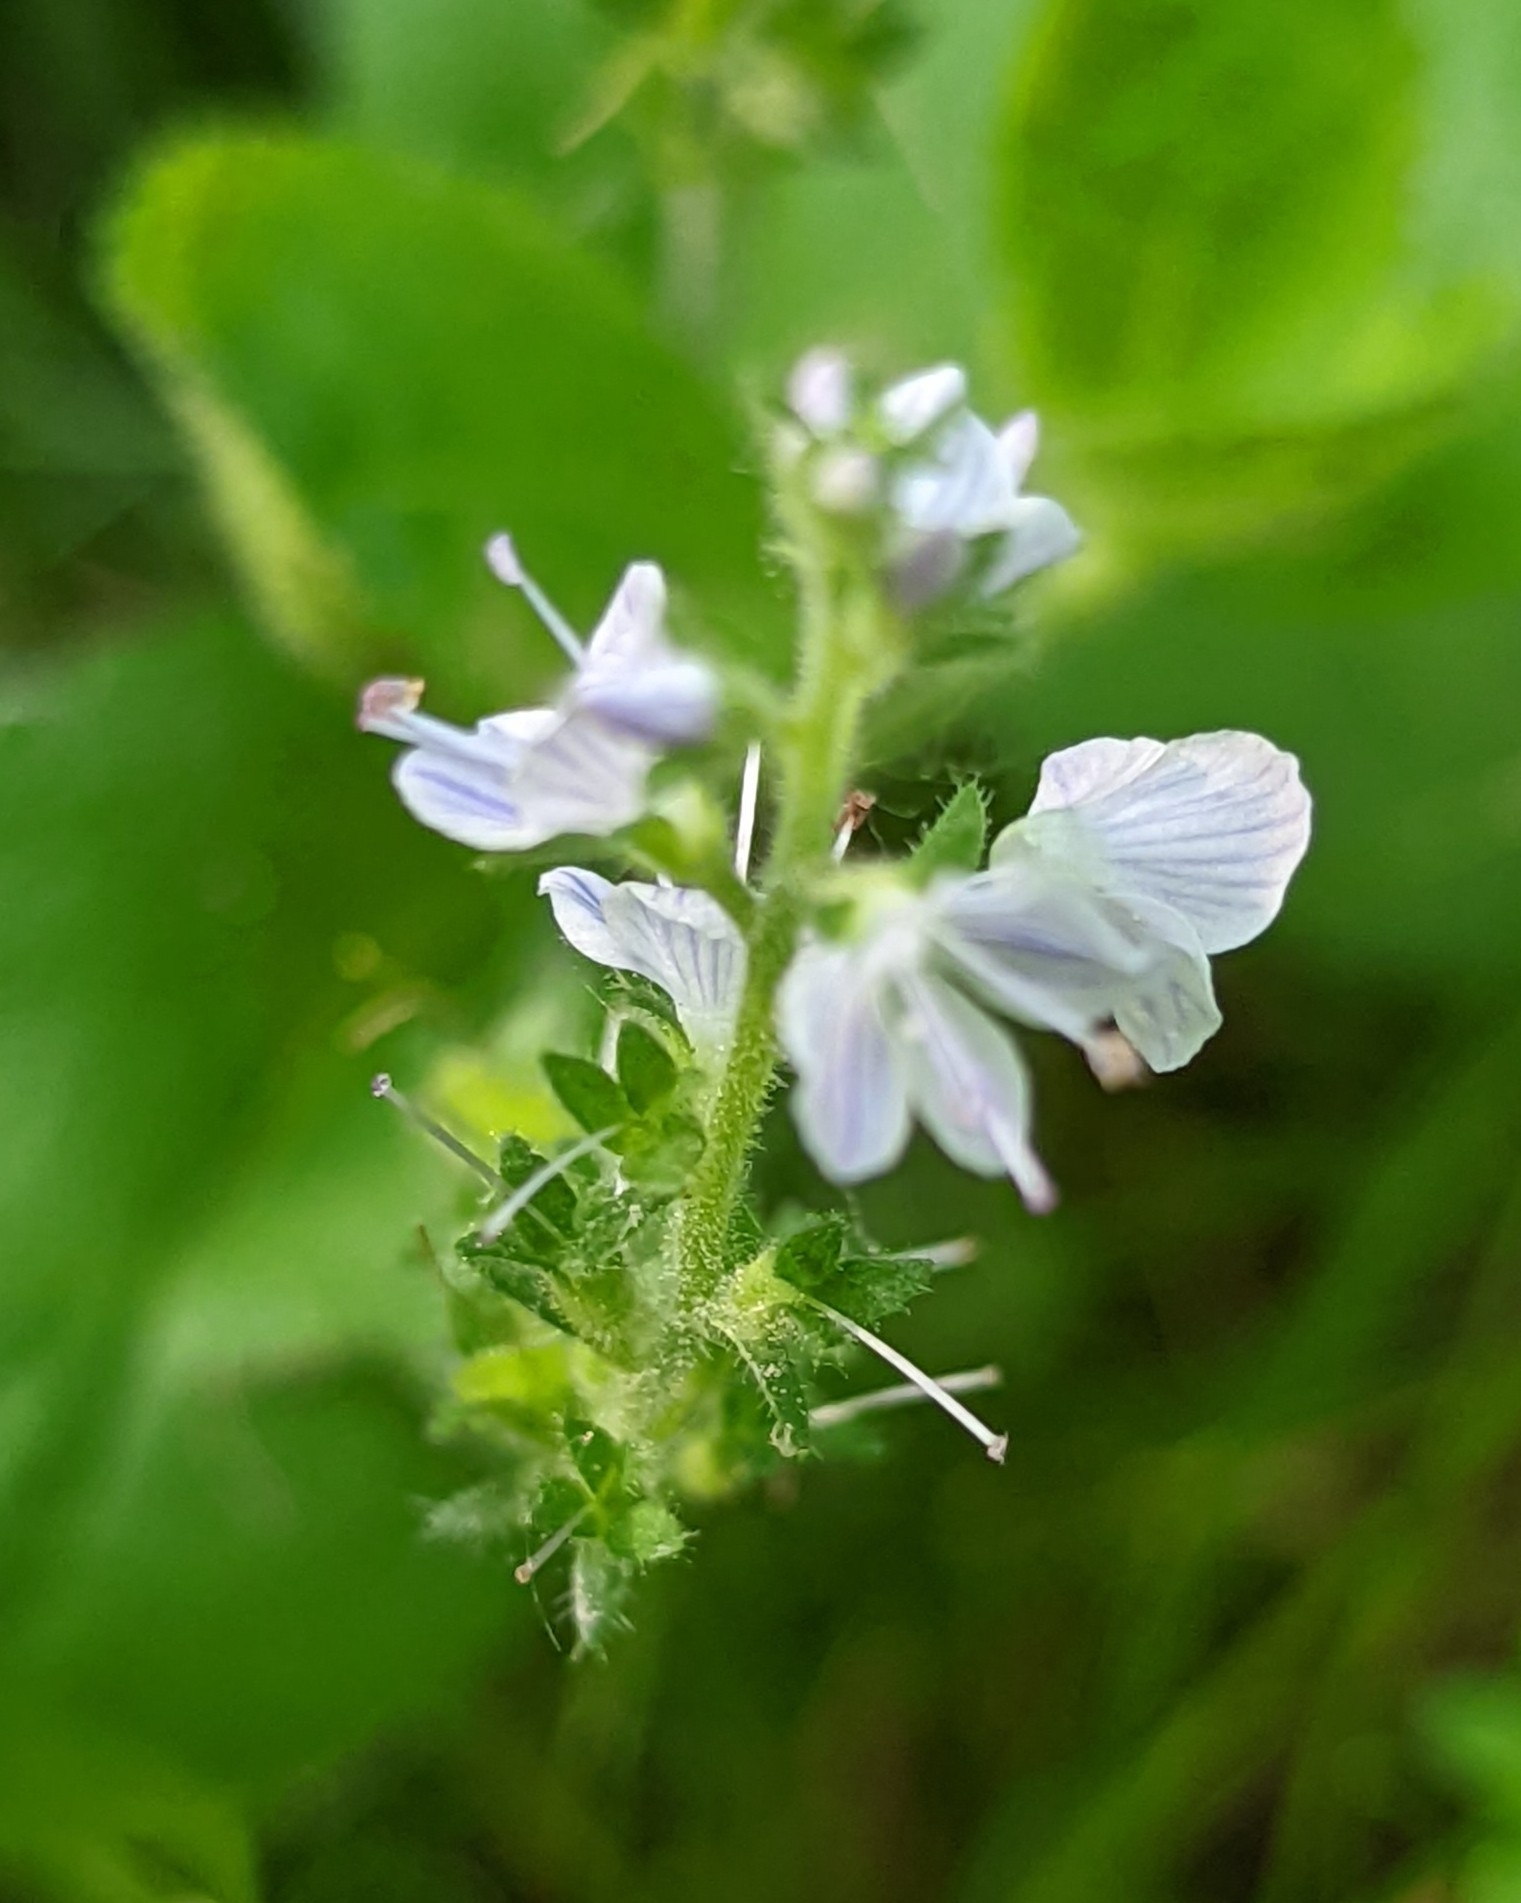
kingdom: Plantae
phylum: Tracheophyta
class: Magnoliopsida
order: Lamiales
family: Plantaginaceae
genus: Veronica
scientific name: Veronica officinalis
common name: Common speedwell
